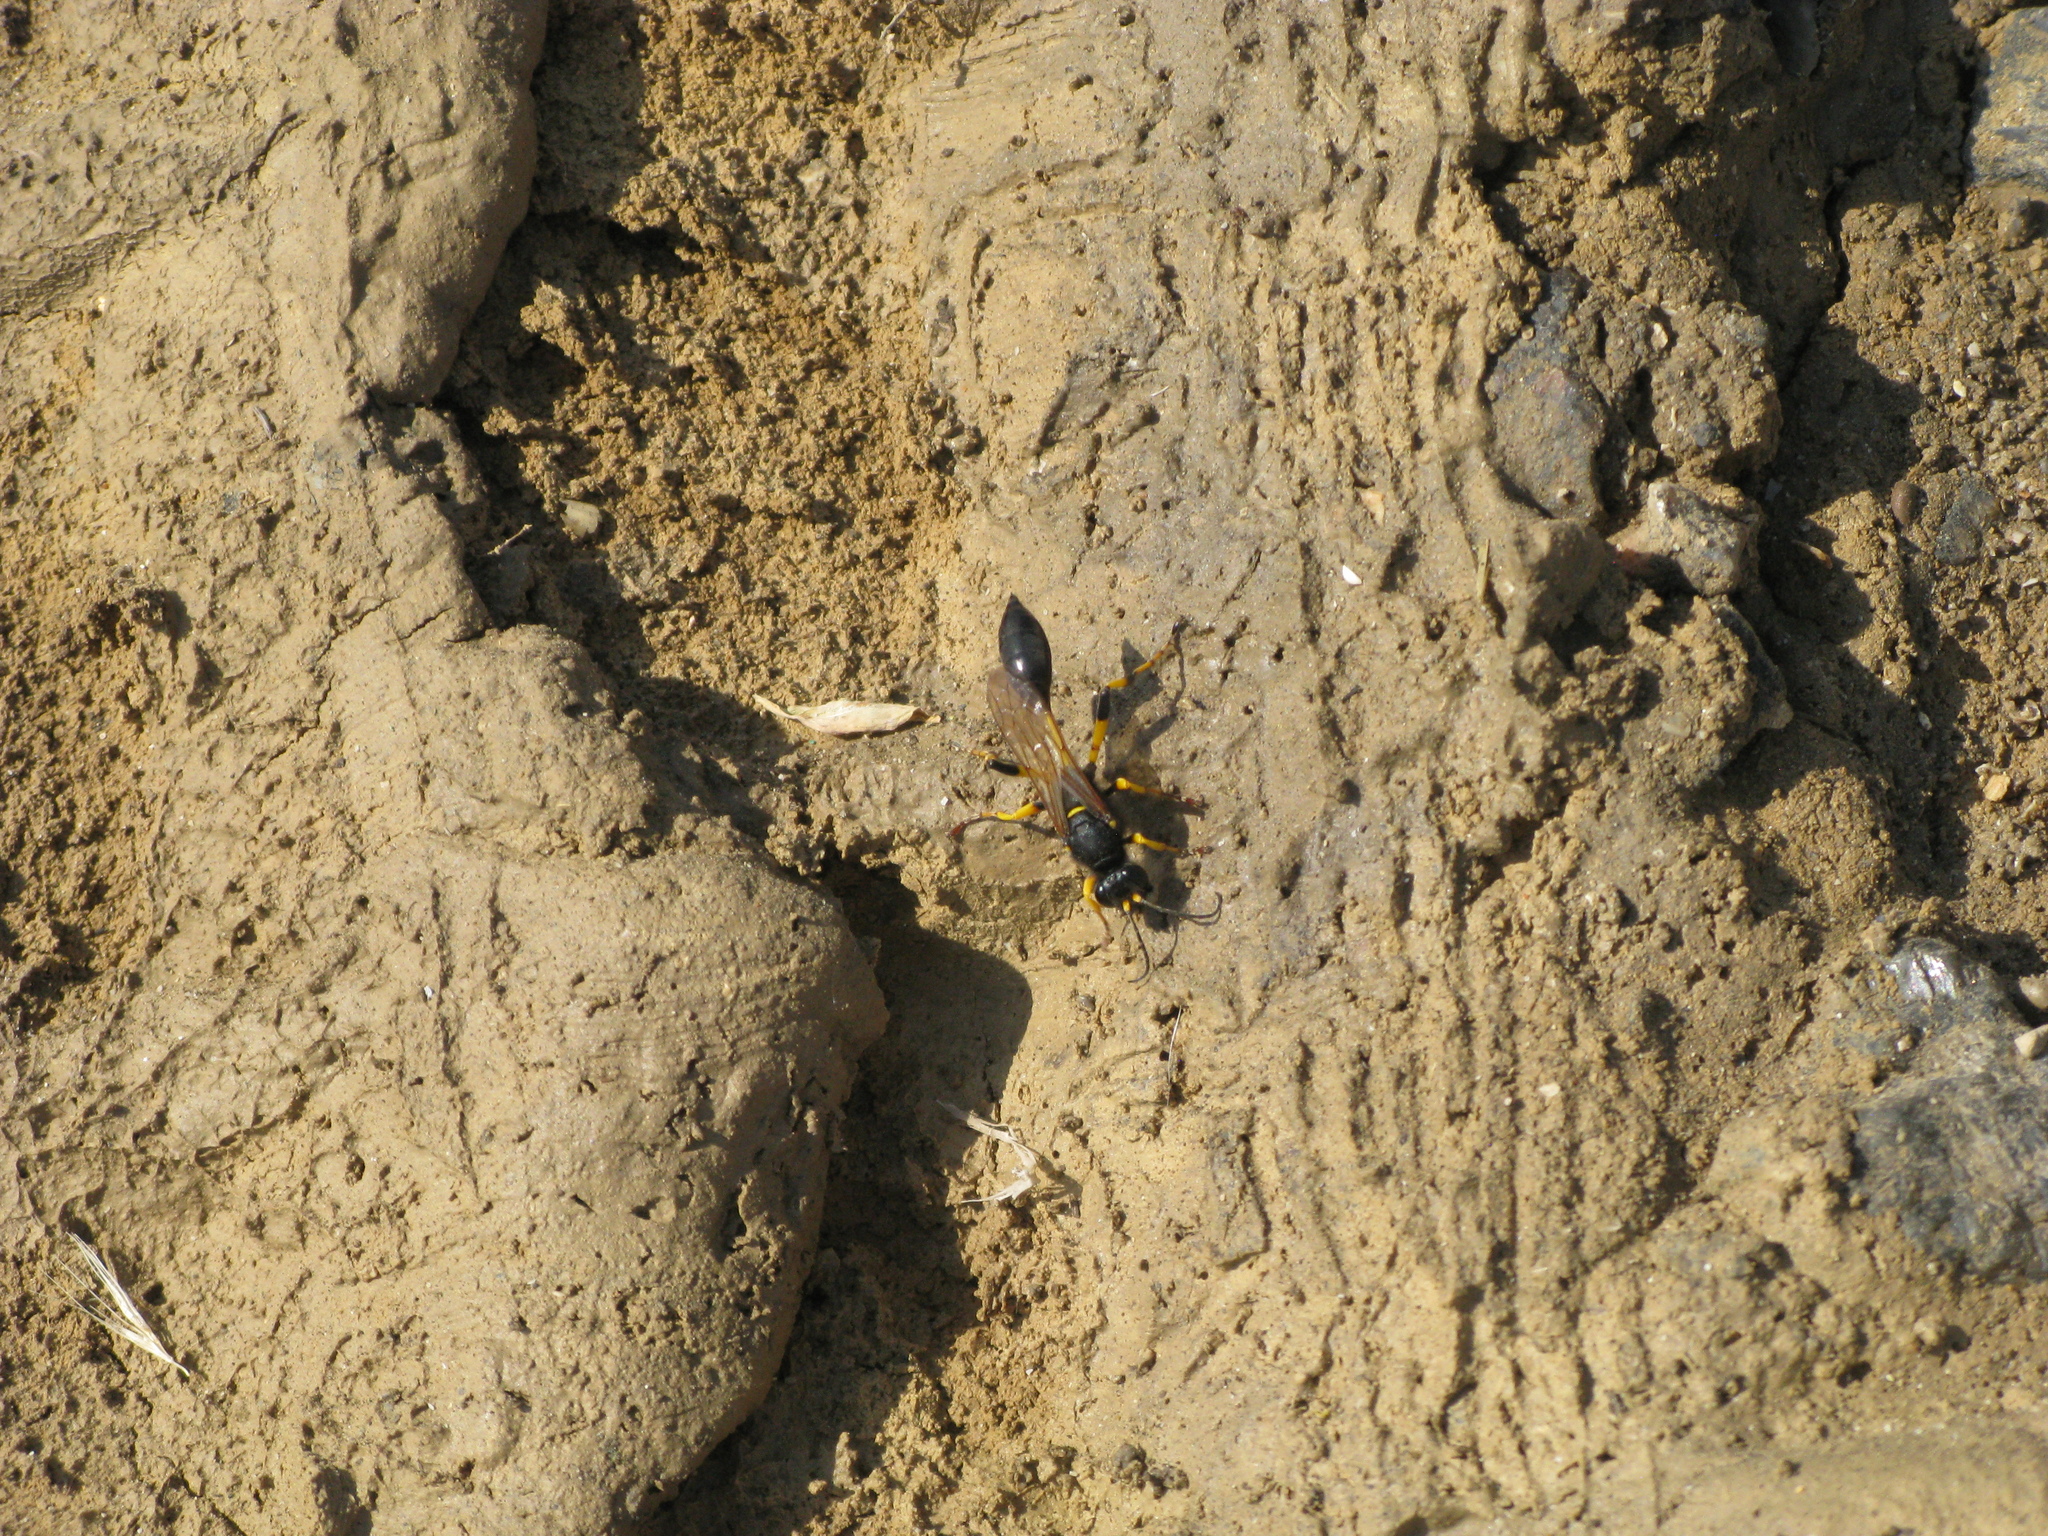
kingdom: Animalia
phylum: Arthropoda
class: Insecta
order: Hymenoptera
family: Sphecidae
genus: Sceliphron
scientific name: Sceliphron destillatorium
